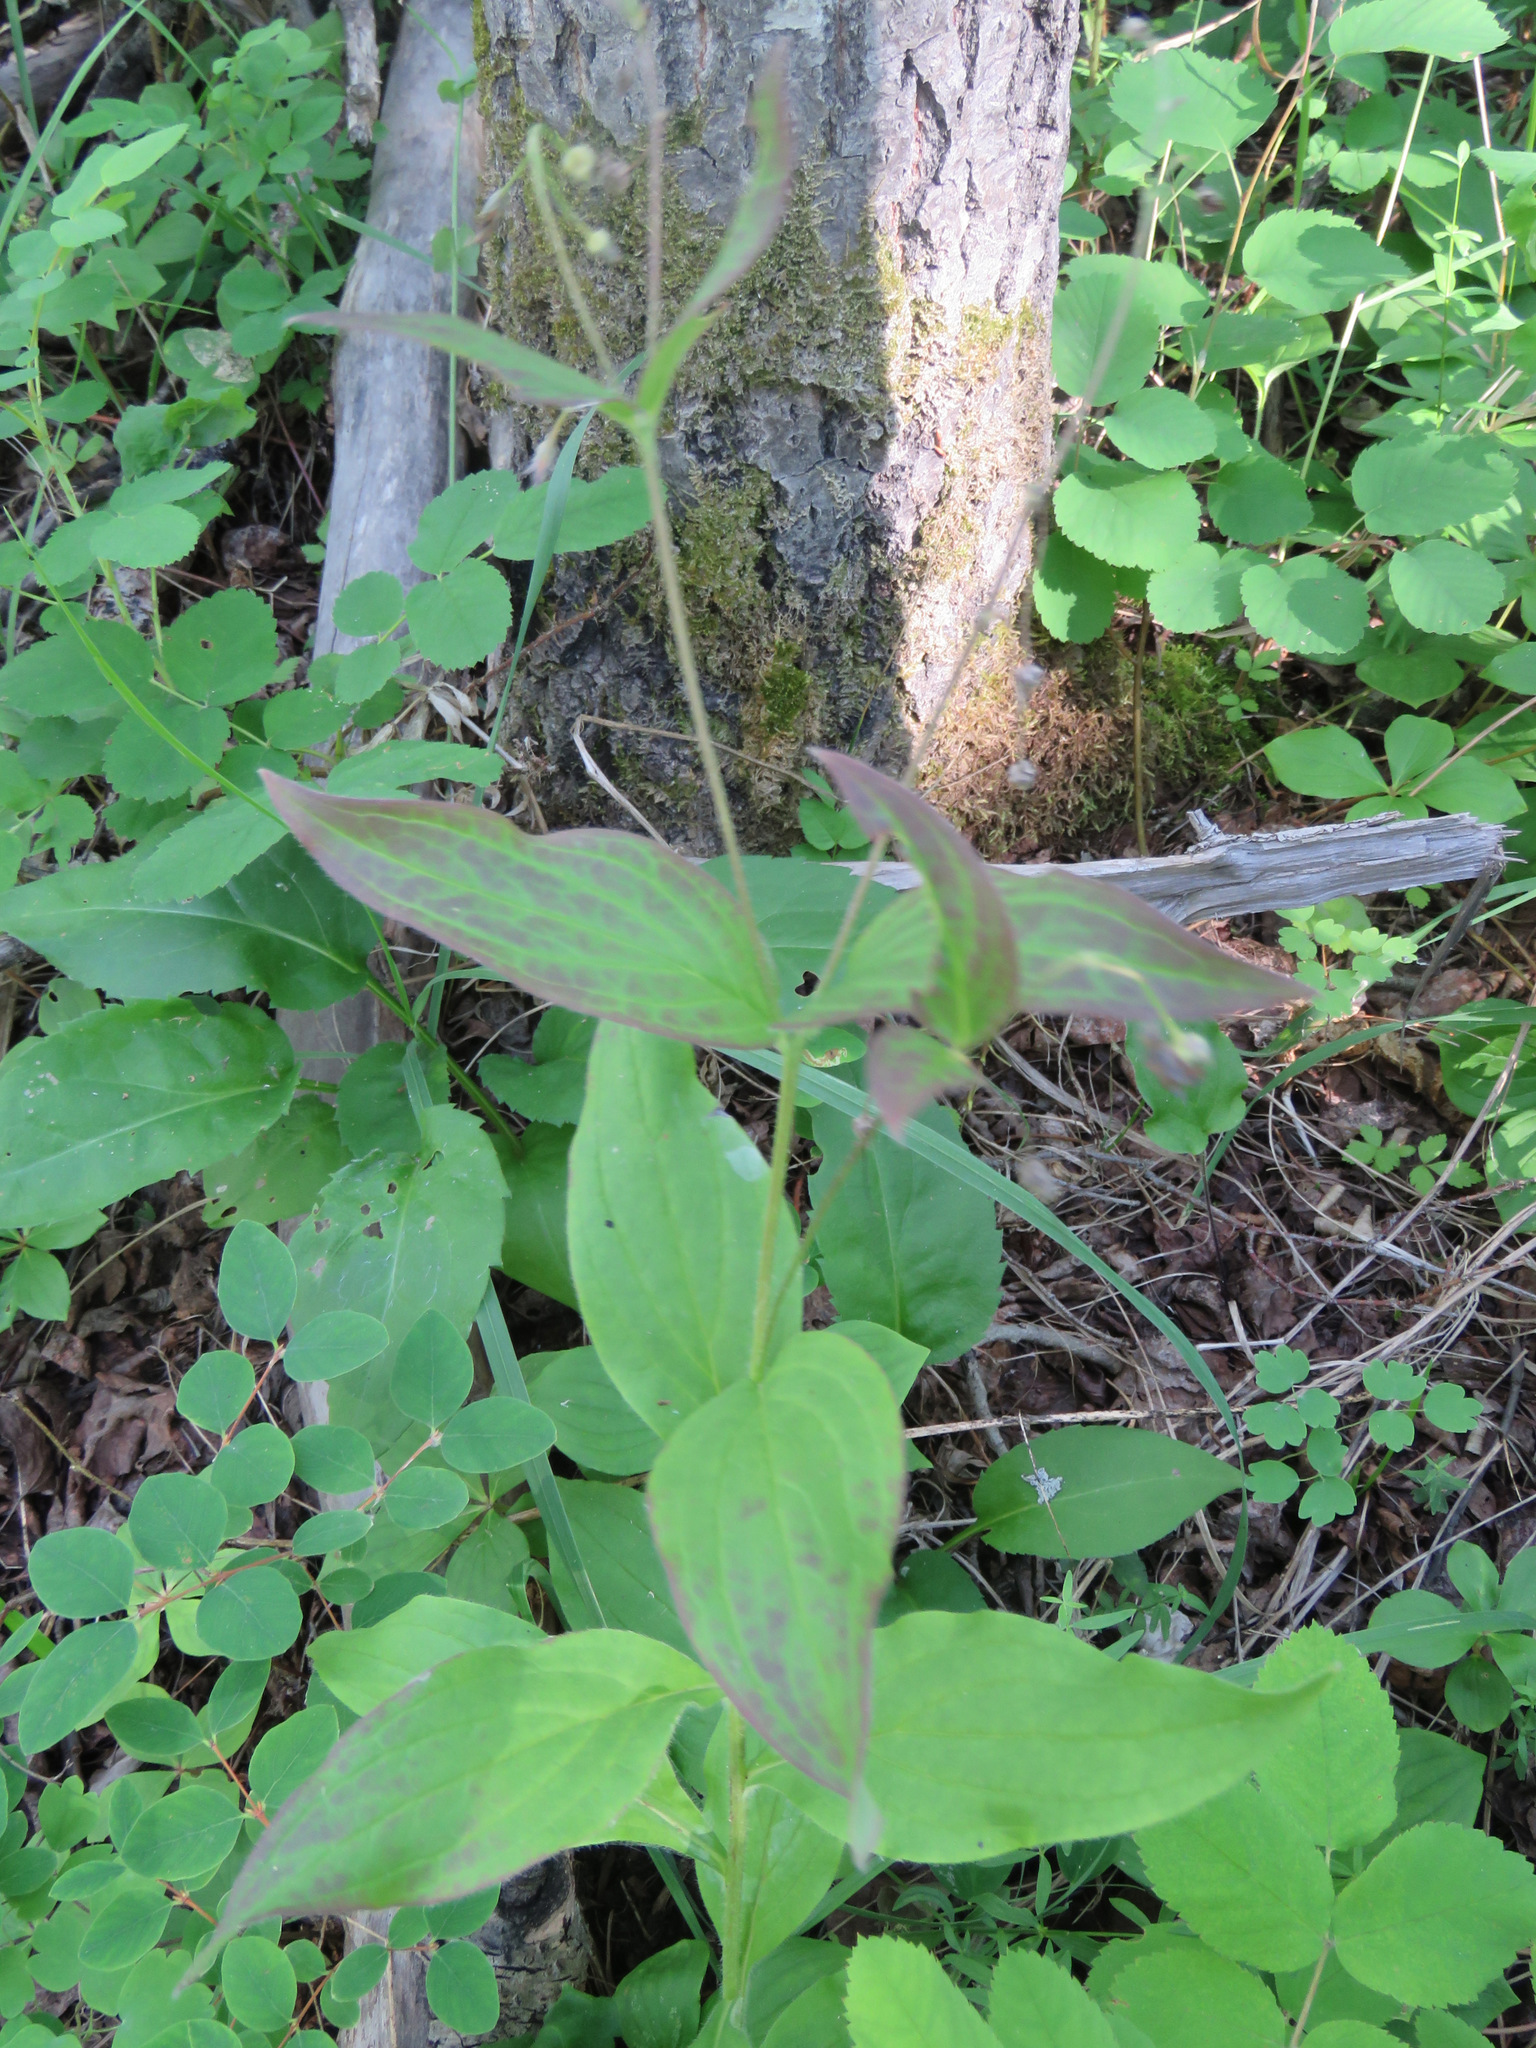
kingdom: Plantae
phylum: Tracheophyta
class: Magnoliopsida
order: Boraginales
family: Boraginaceae
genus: Mertensia
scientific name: Mertensia paniculata
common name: Panicled bluebells
